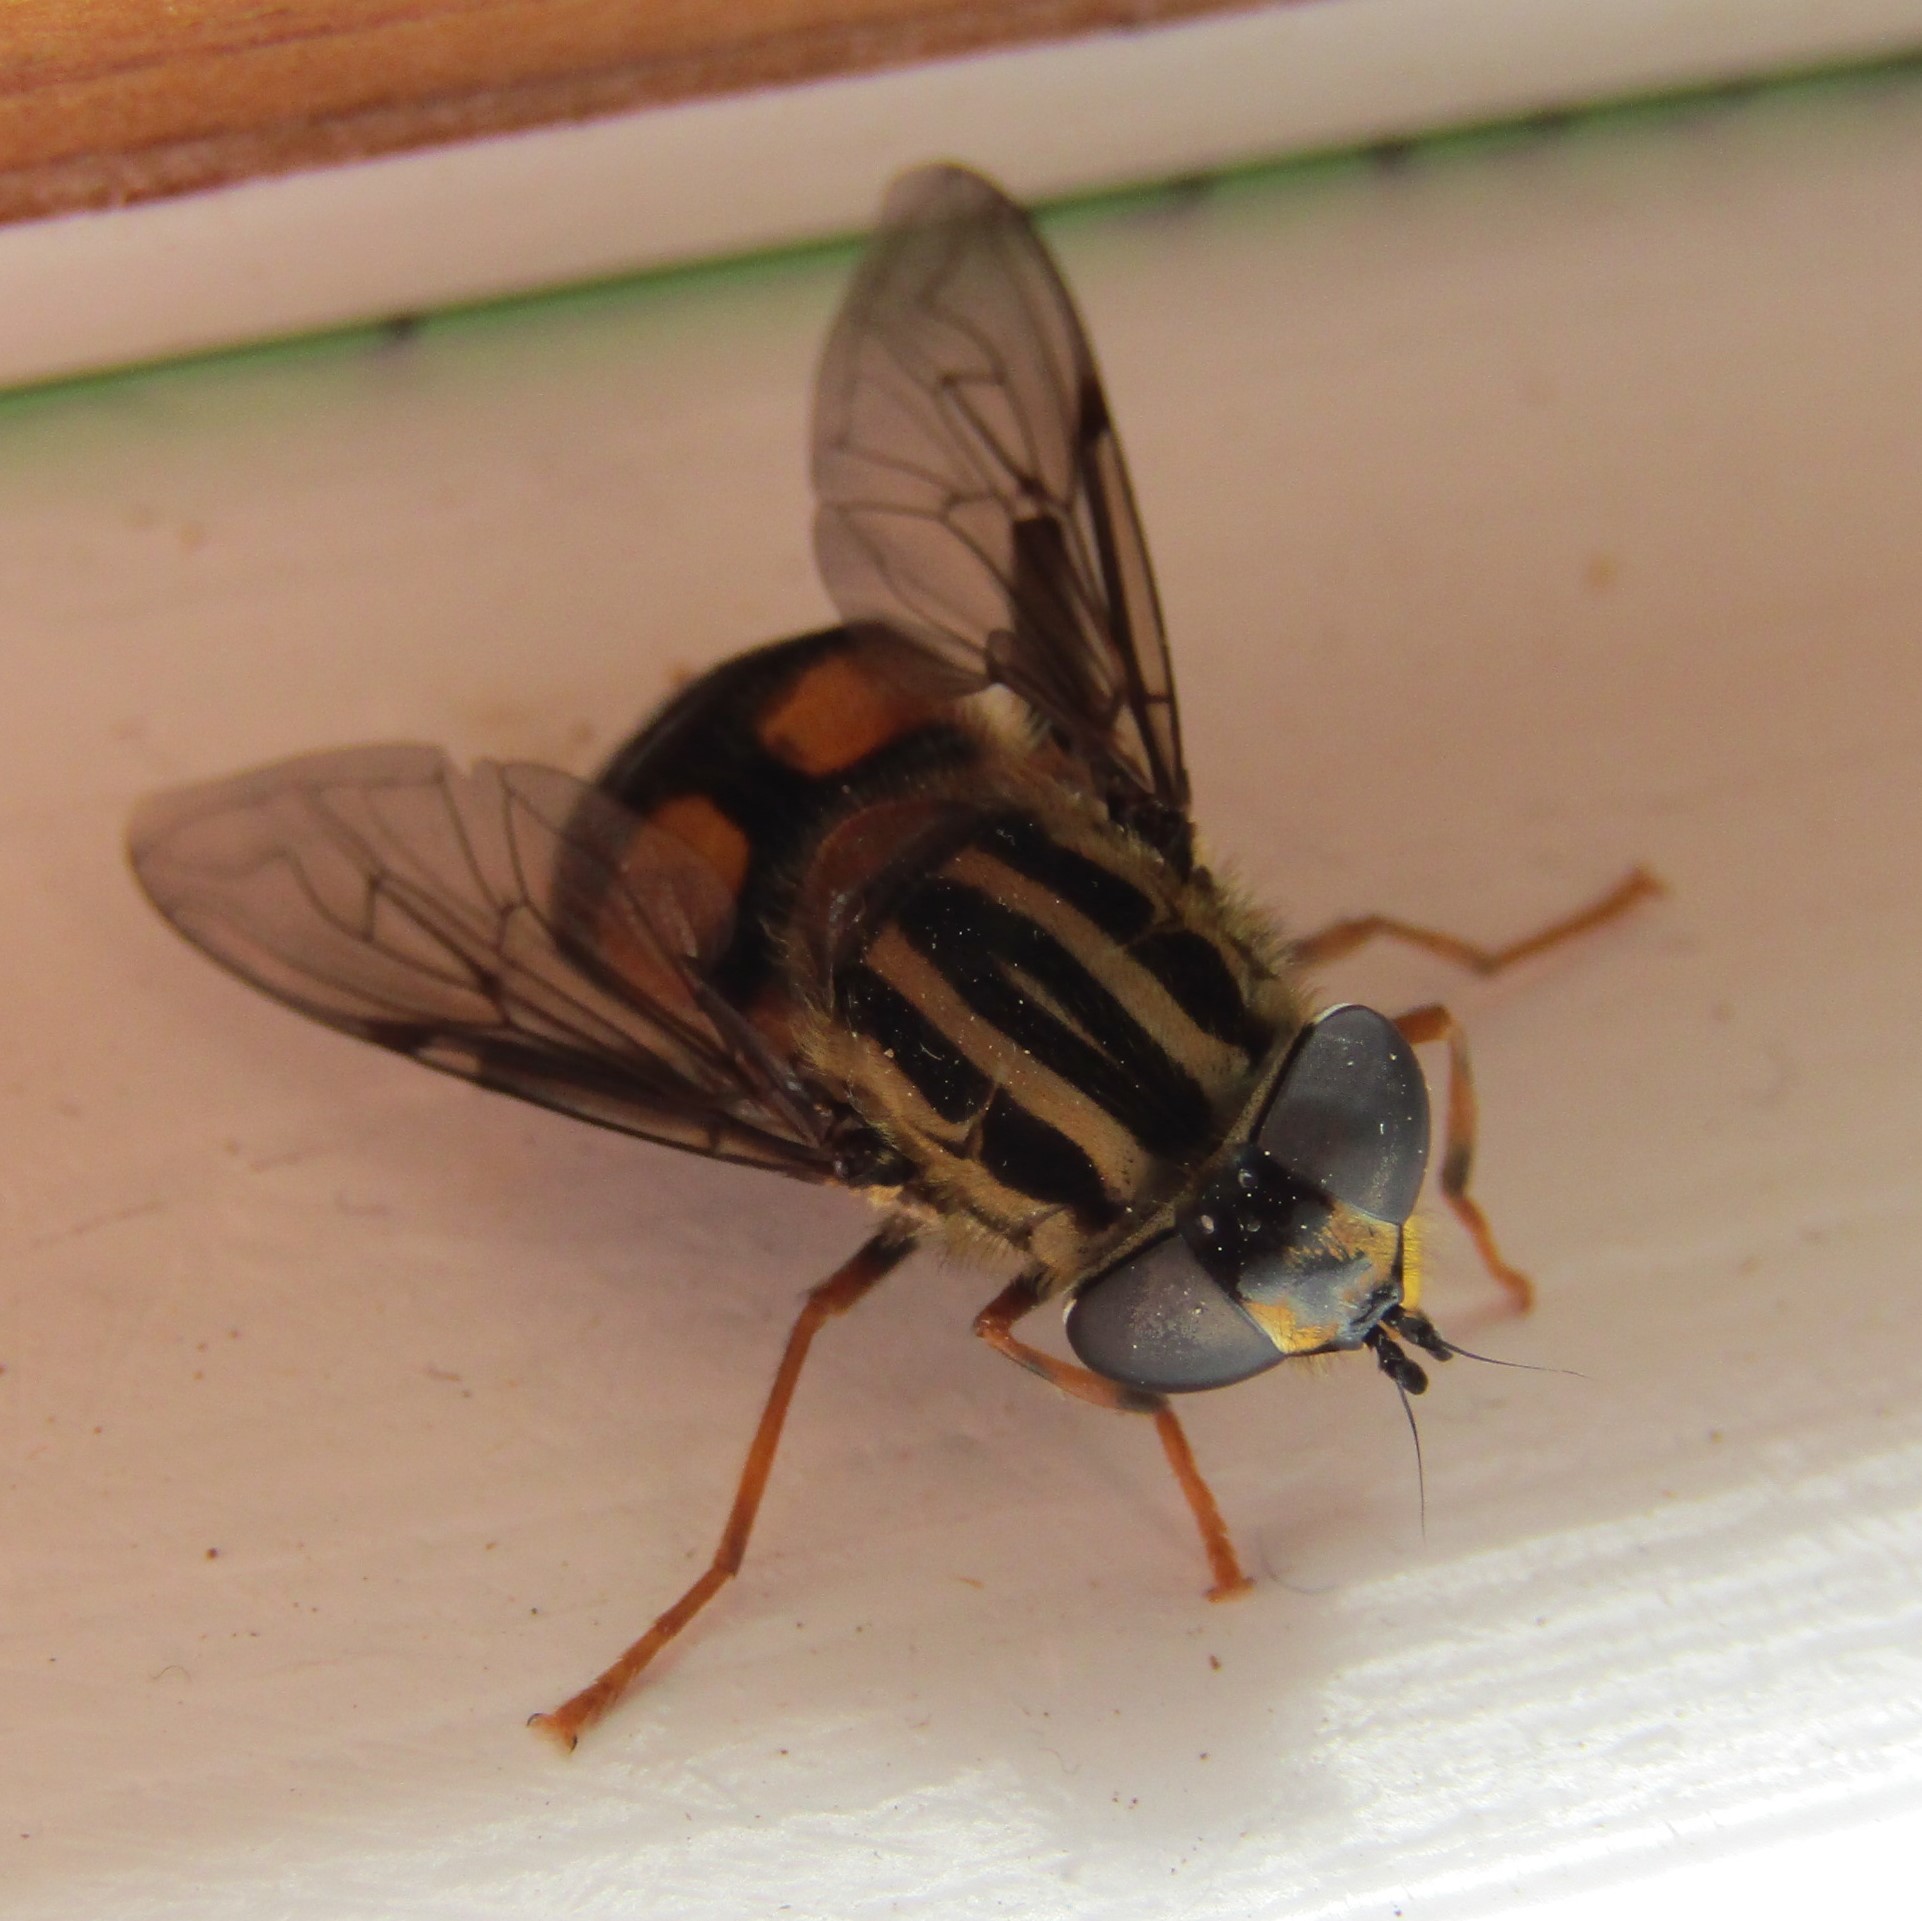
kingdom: Animalia
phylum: Arthropoda
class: Insecta
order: Diptera
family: Syrphidae
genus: Helophilus
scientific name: Helophilus antipodus
